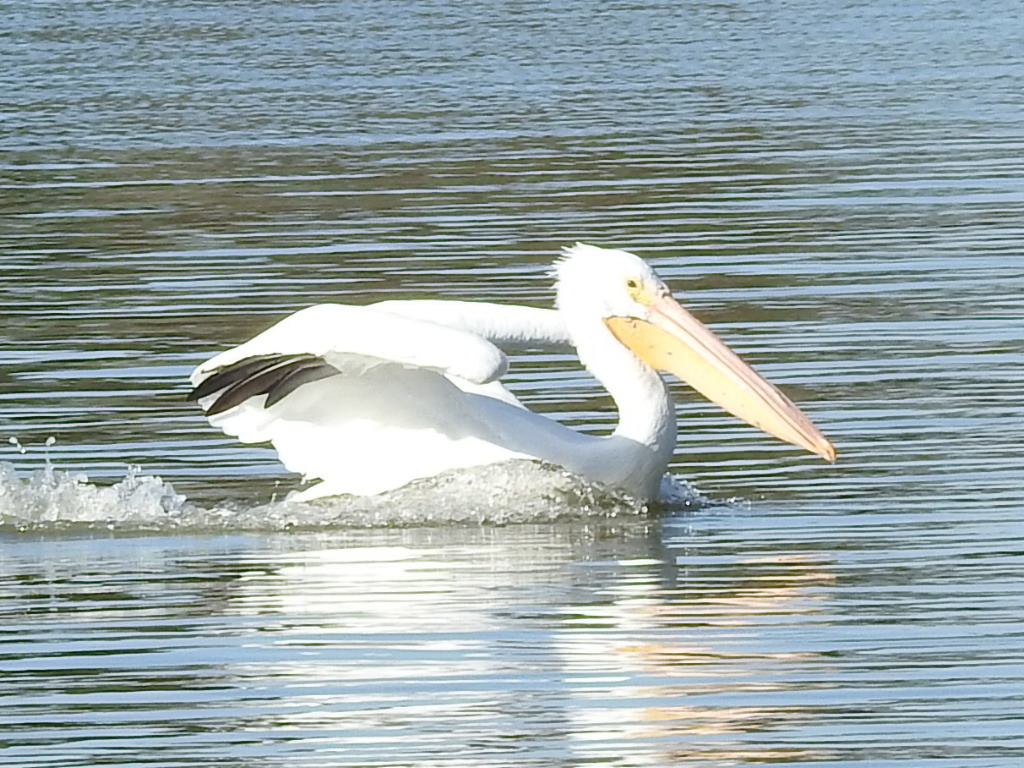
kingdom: Animalia
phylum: Chordata
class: Aves
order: Pelecaniformes
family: Pelecanidae
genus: Pelecanus
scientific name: Pelecanus erythrorhynchos
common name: American white pelican
